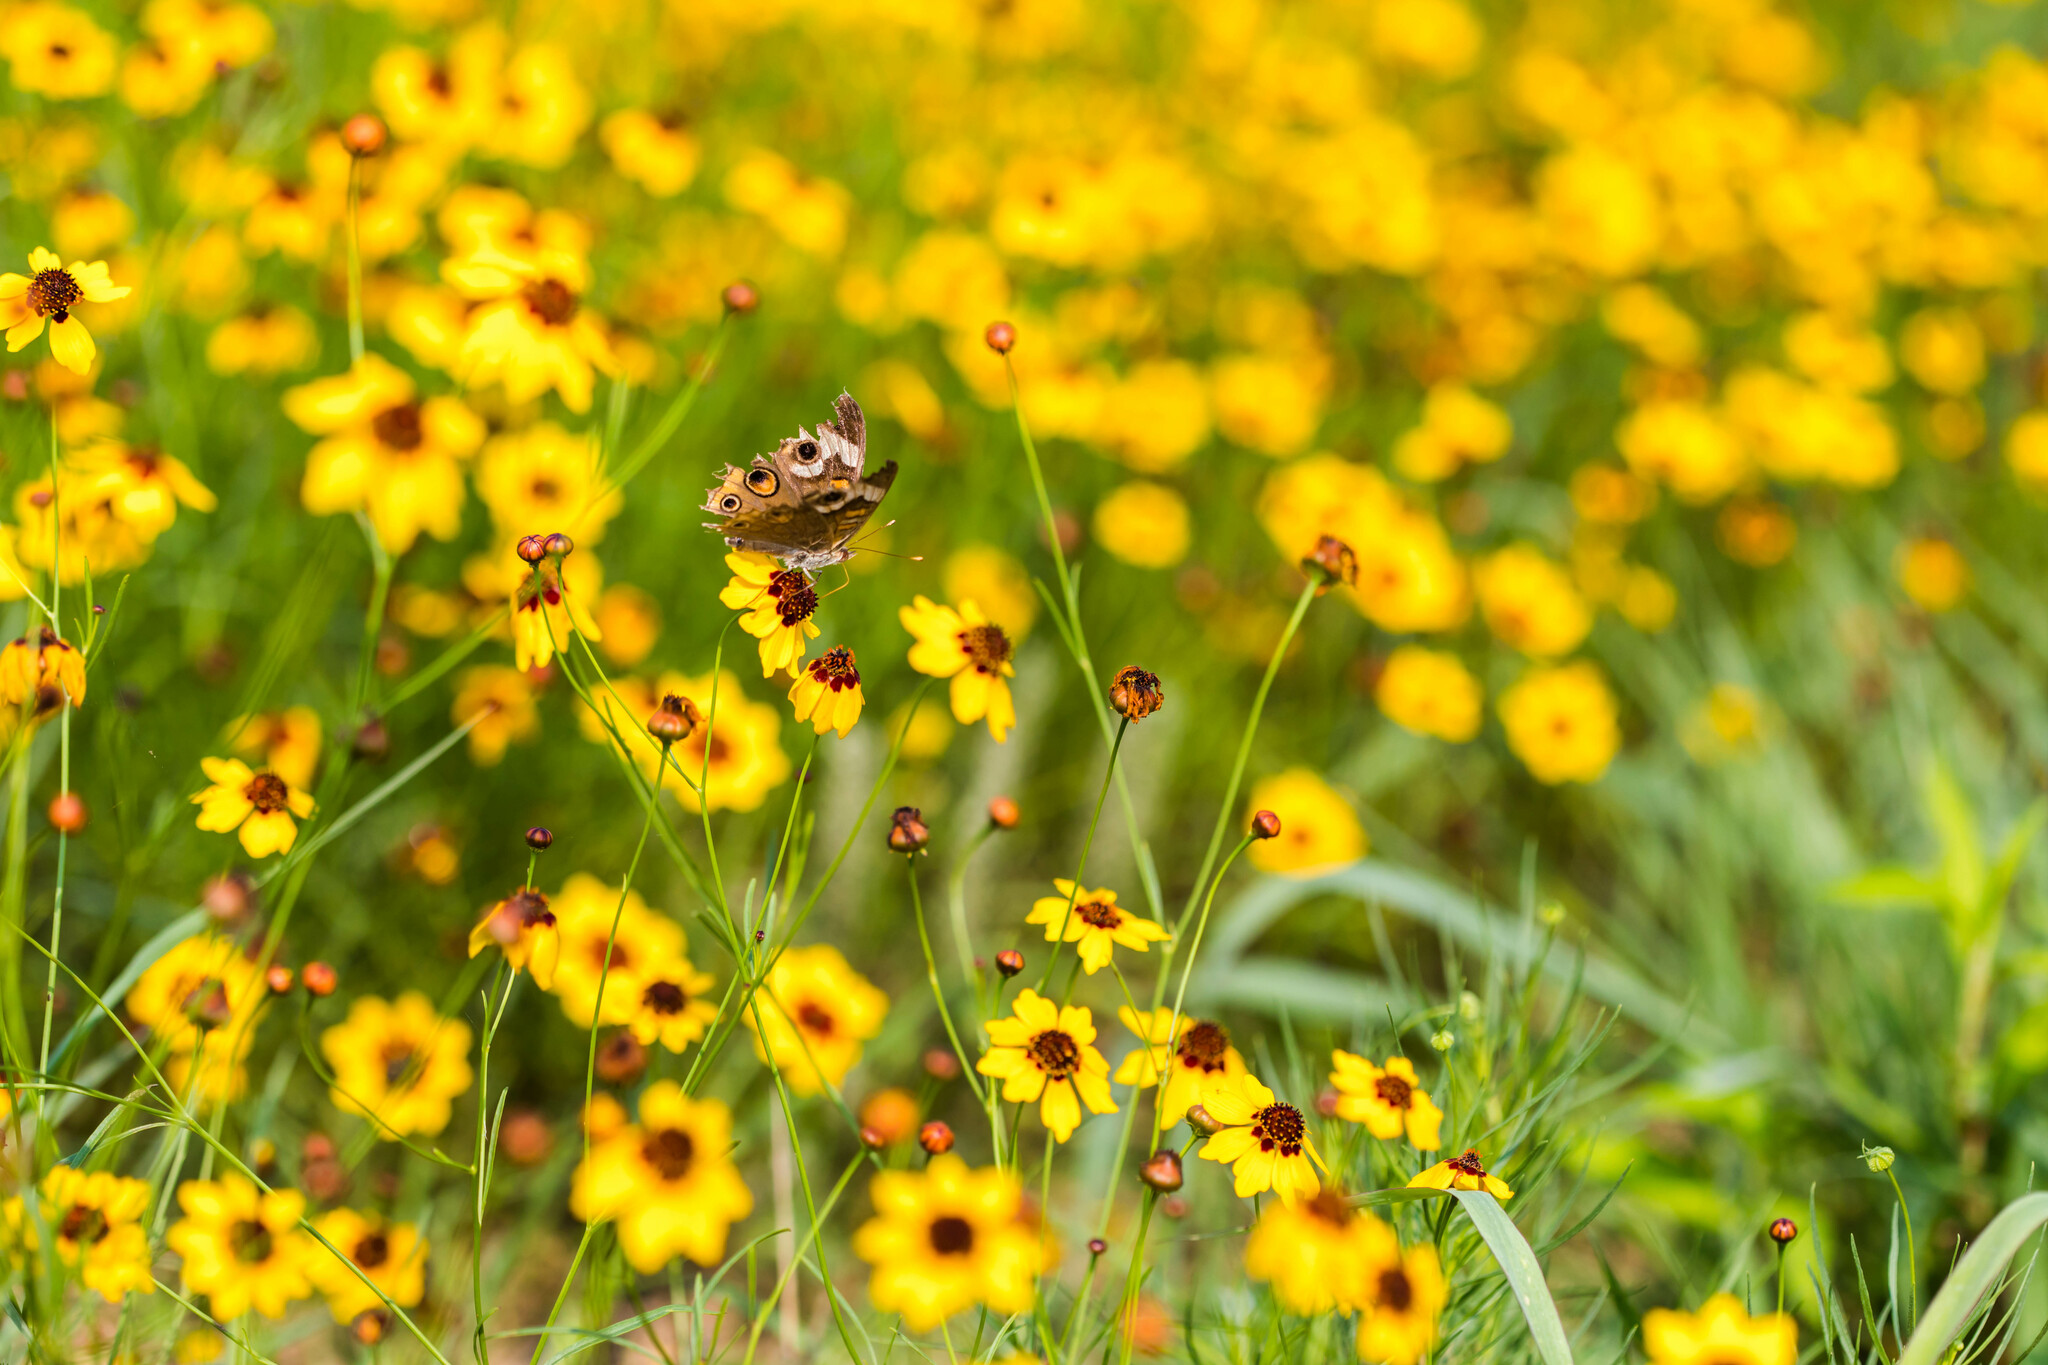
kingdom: Animalia
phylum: Arthropoda
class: Insecta
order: Lepidoptera
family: Nymphalidae
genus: Junonia
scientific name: Junonia coenia
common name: Common buckeye
